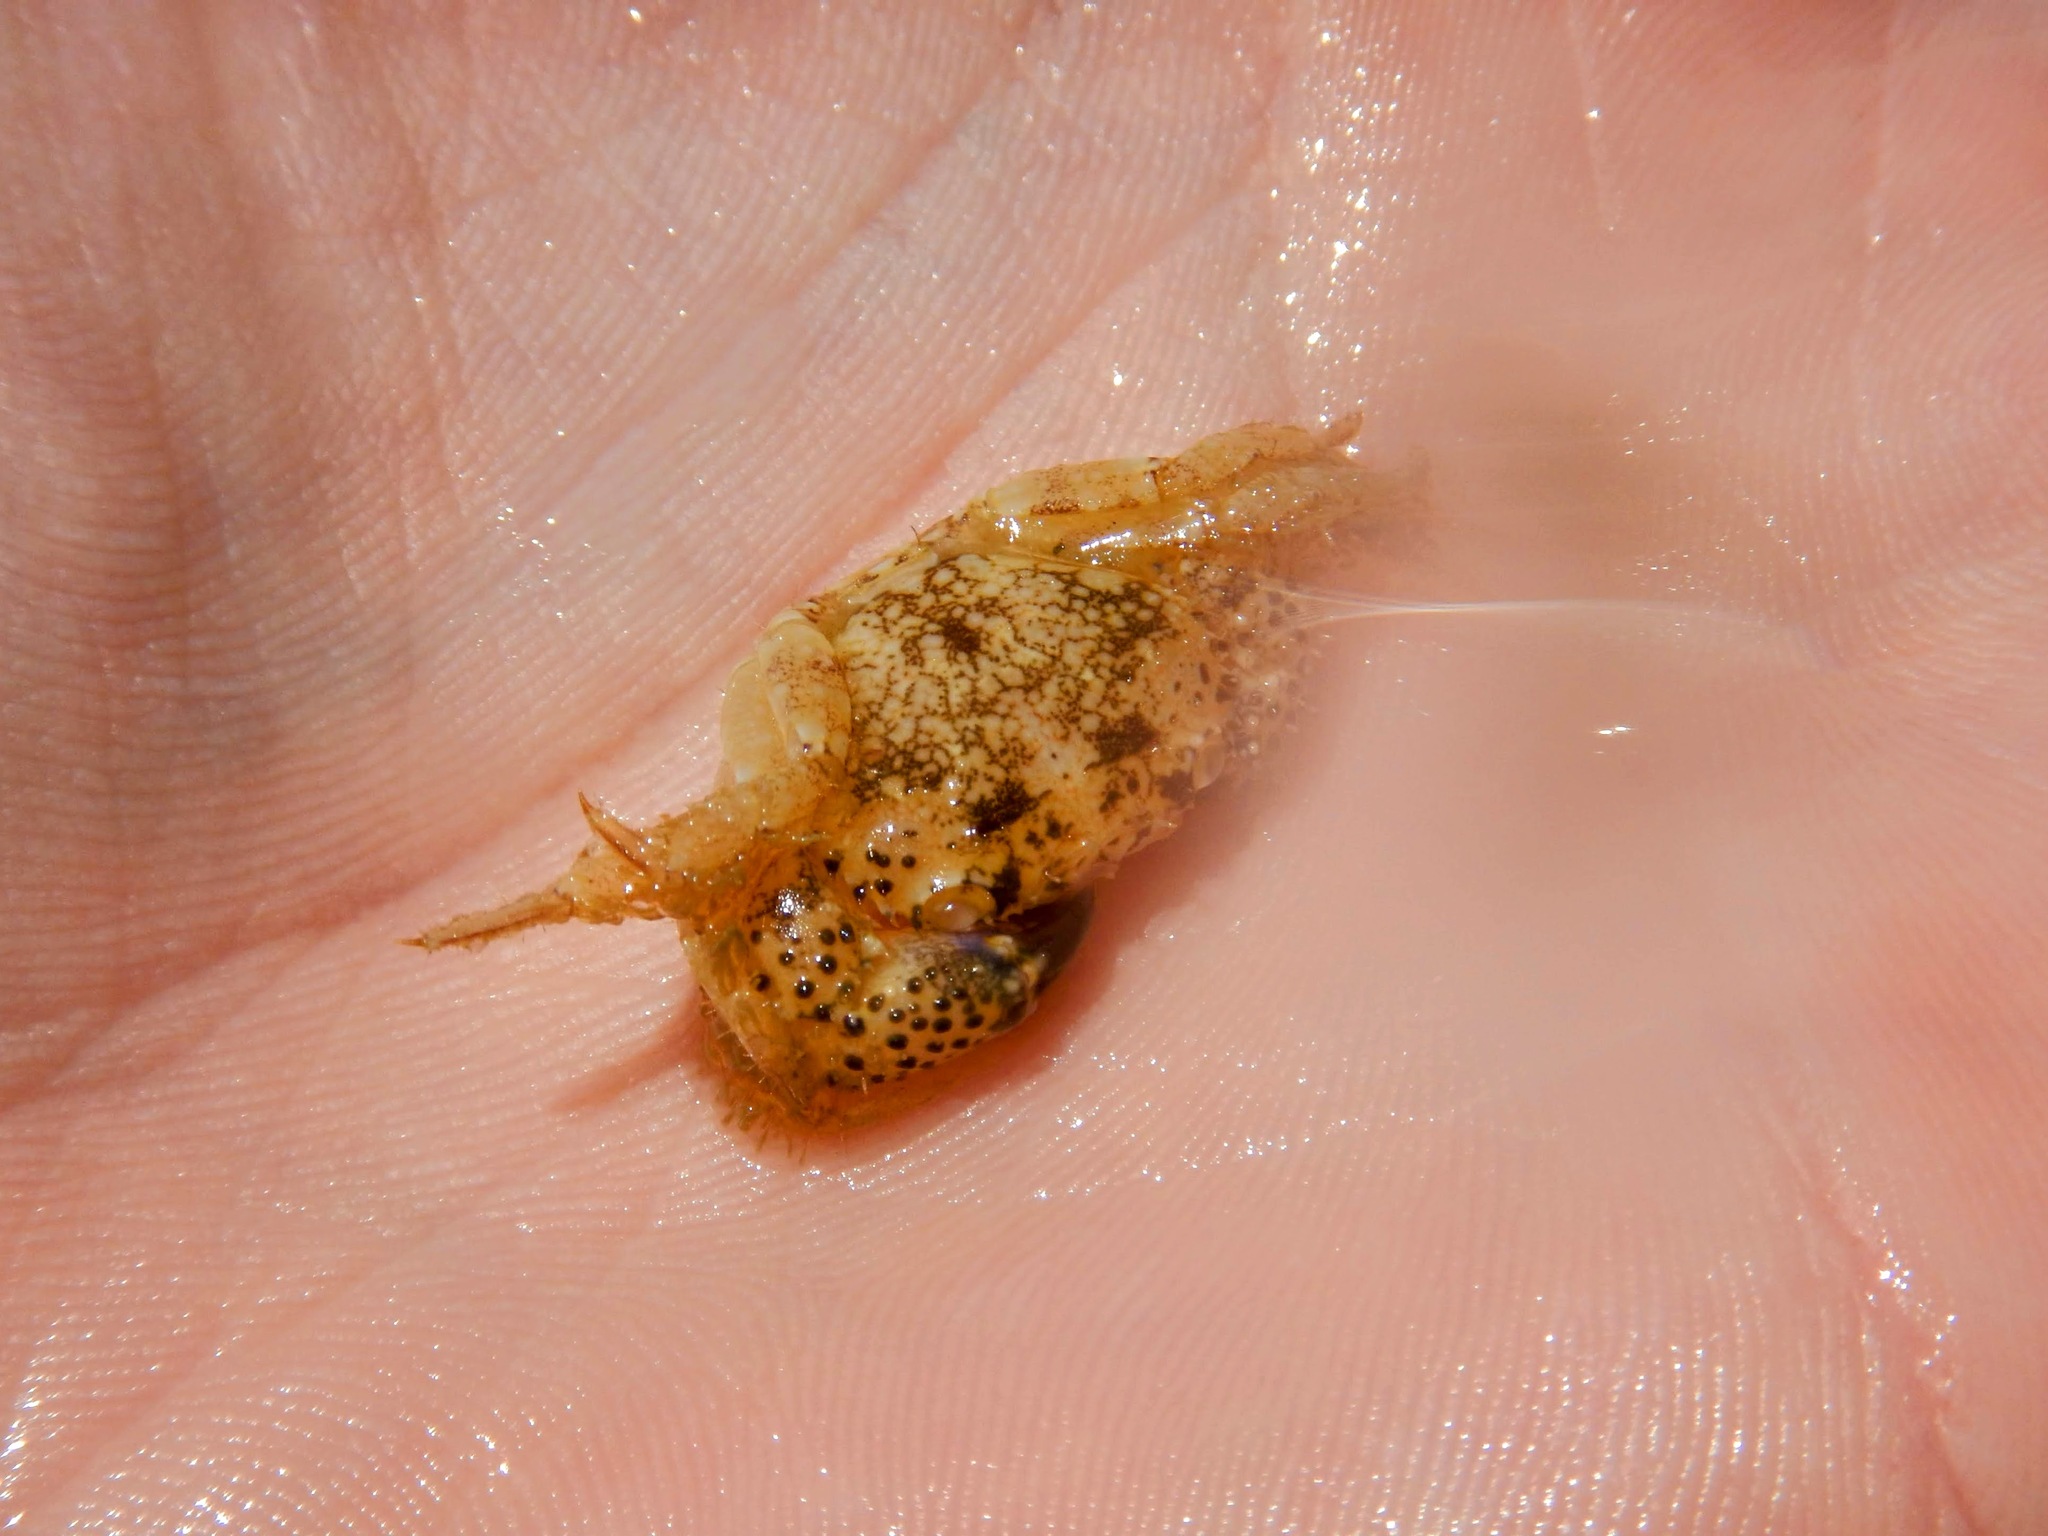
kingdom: Animalia
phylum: Arthropoda
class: Malacostraca
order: Decapoda
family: Eriphiidae
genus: Eriphia
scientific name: Eriphia verrucosa
